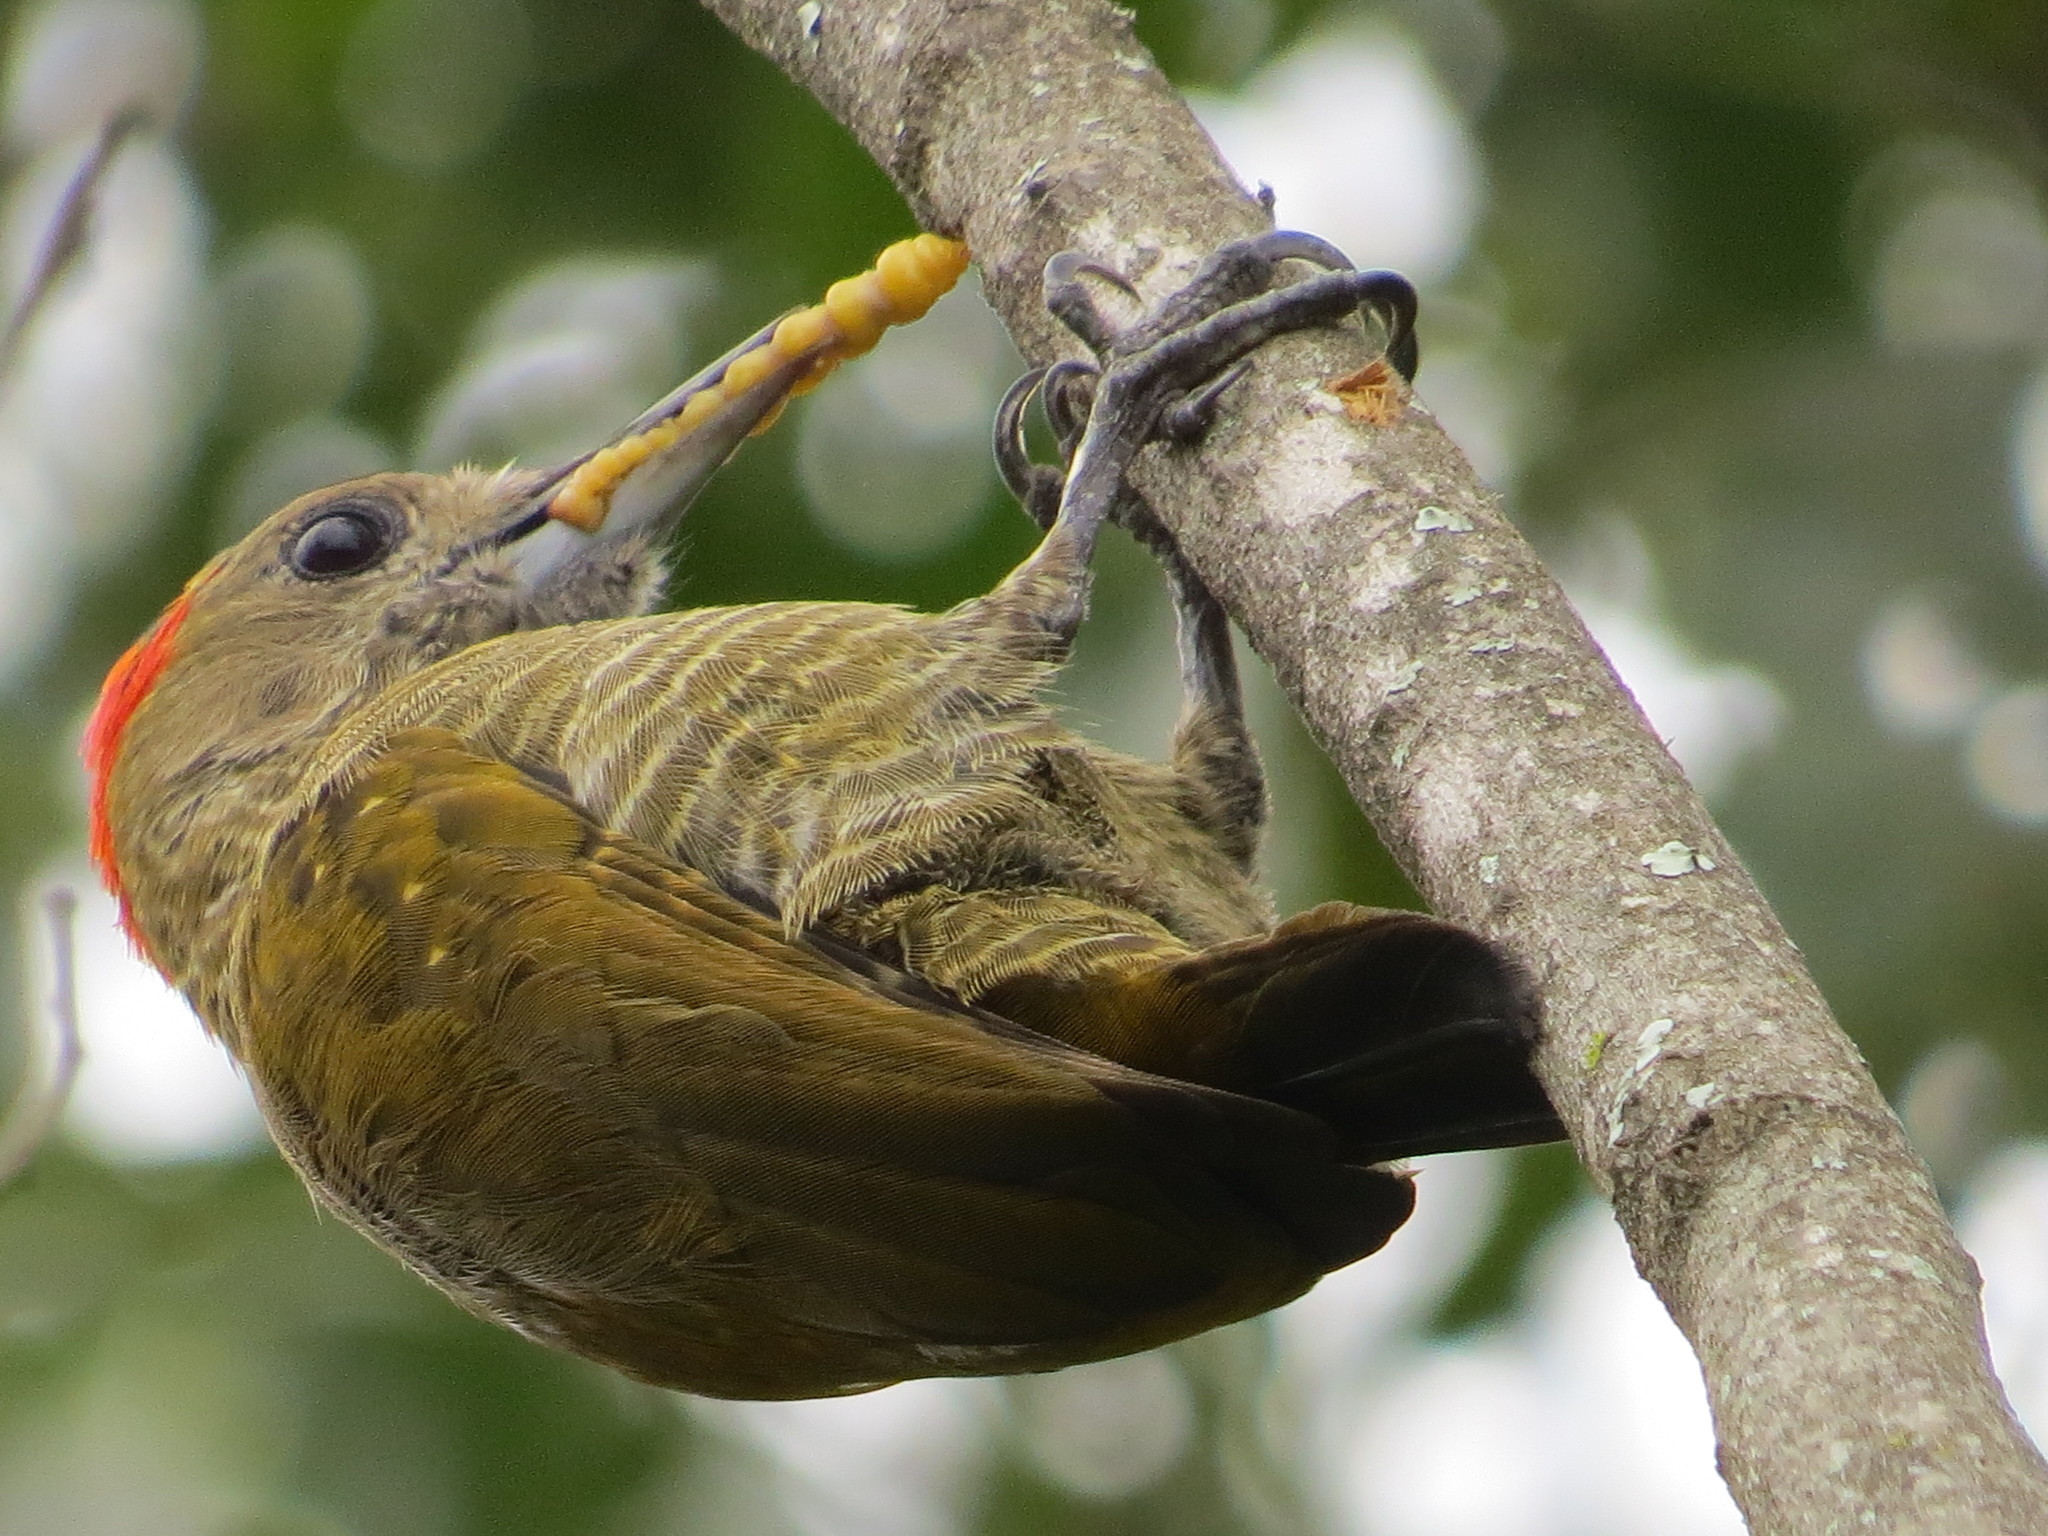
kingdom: Animalia
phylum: Chordata
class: Aves
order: Piciformes
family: Picidae
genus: Veniliornis
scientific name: Veniliornis passerinus
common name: Little woodpecker
